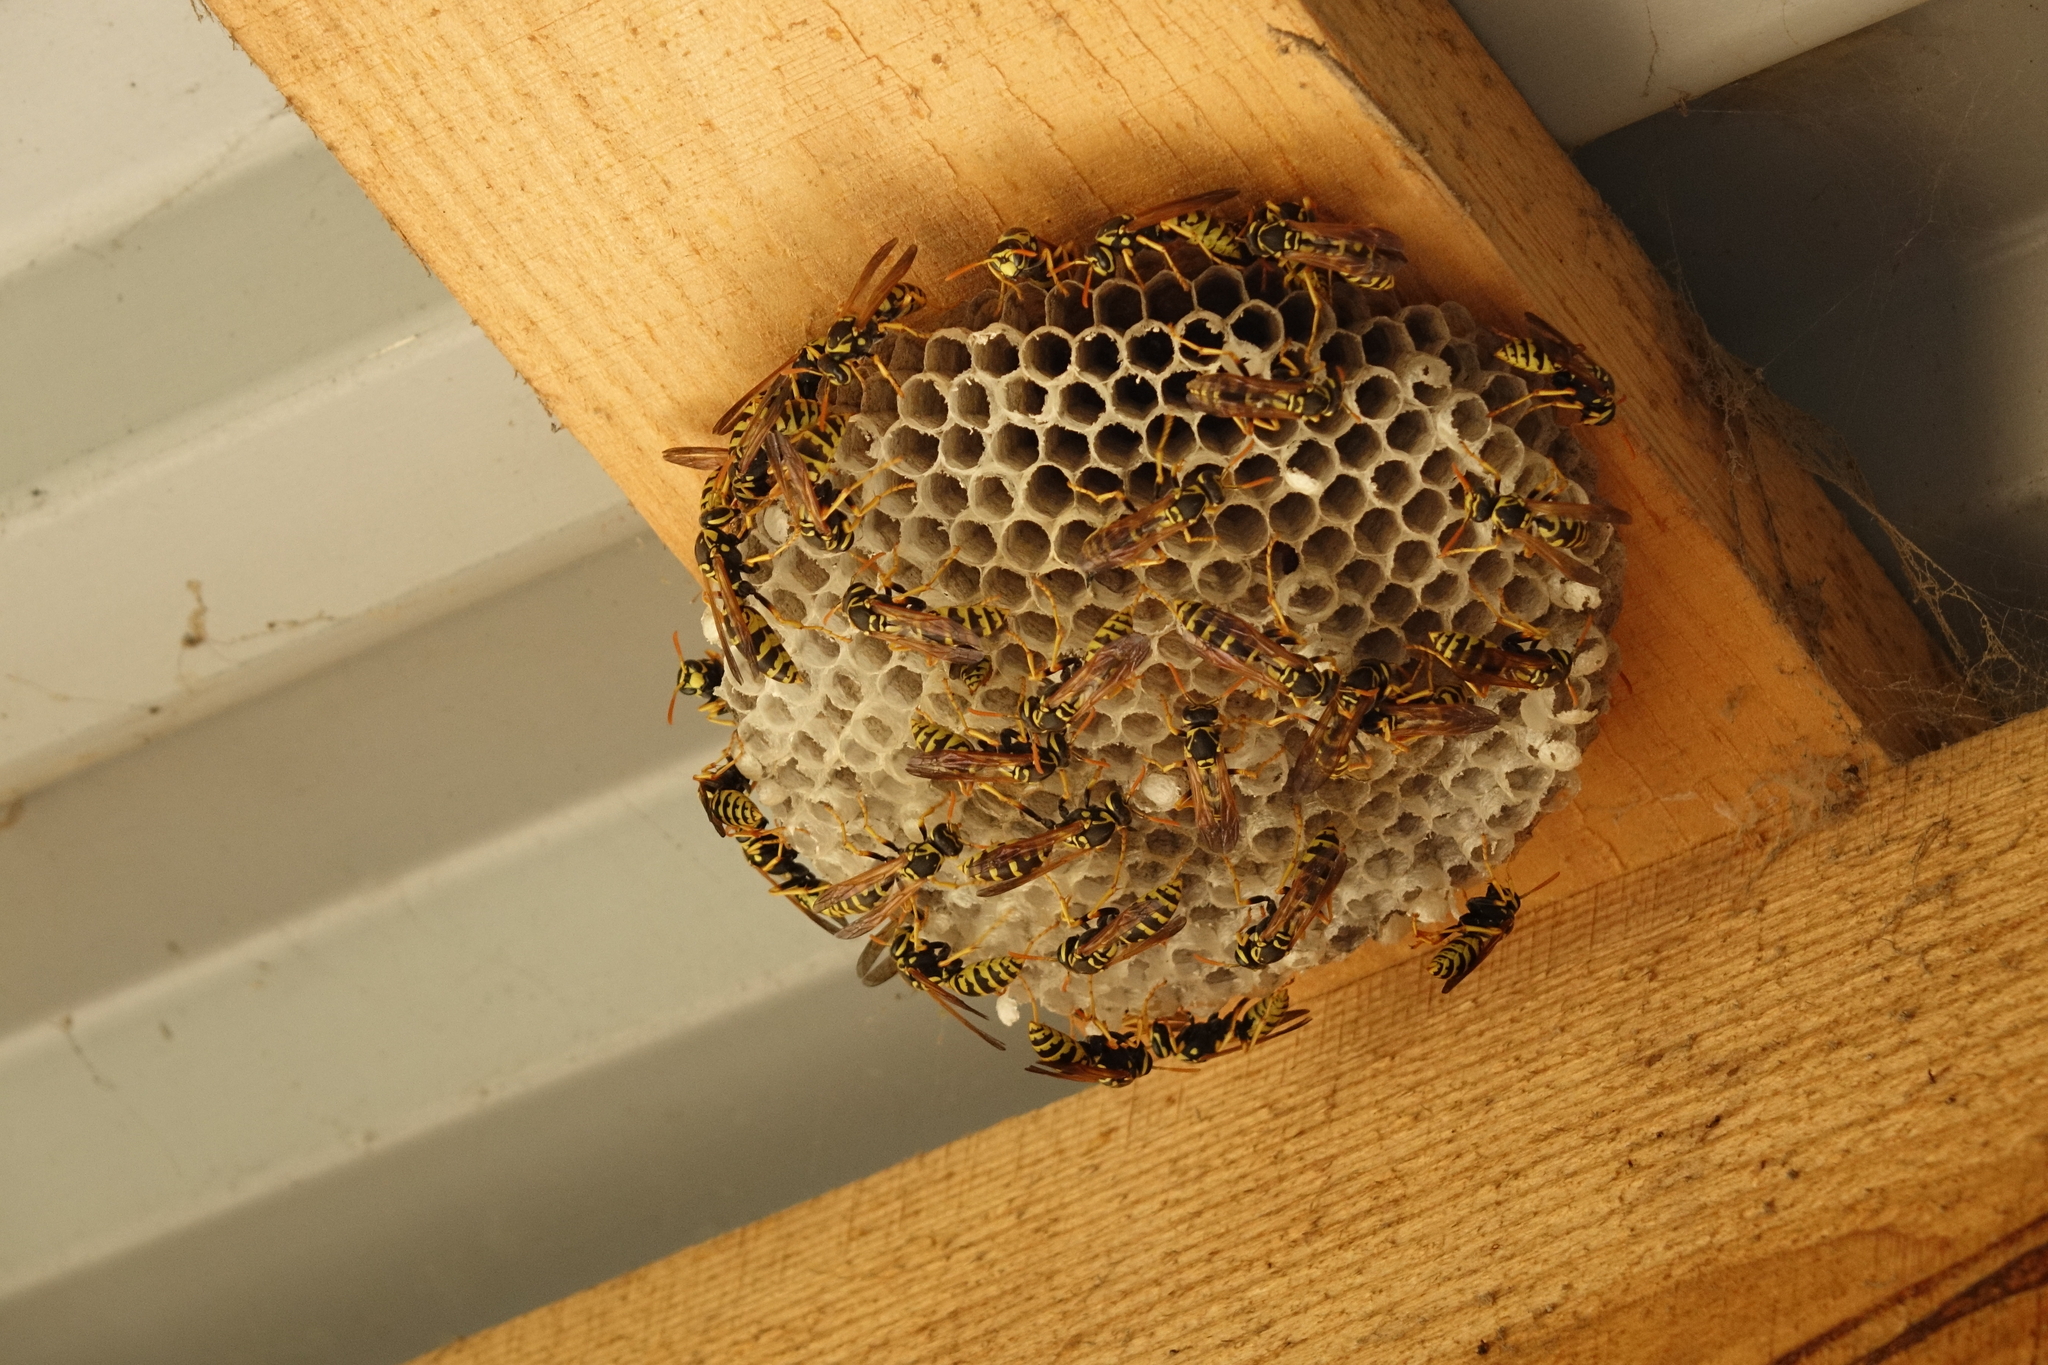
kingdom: Animalia
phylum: Arthropoda
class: Insecta
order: Hymenoptera
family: Eumenidae
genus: Polistes
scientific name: Polistes dominula
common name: Paper wasp
